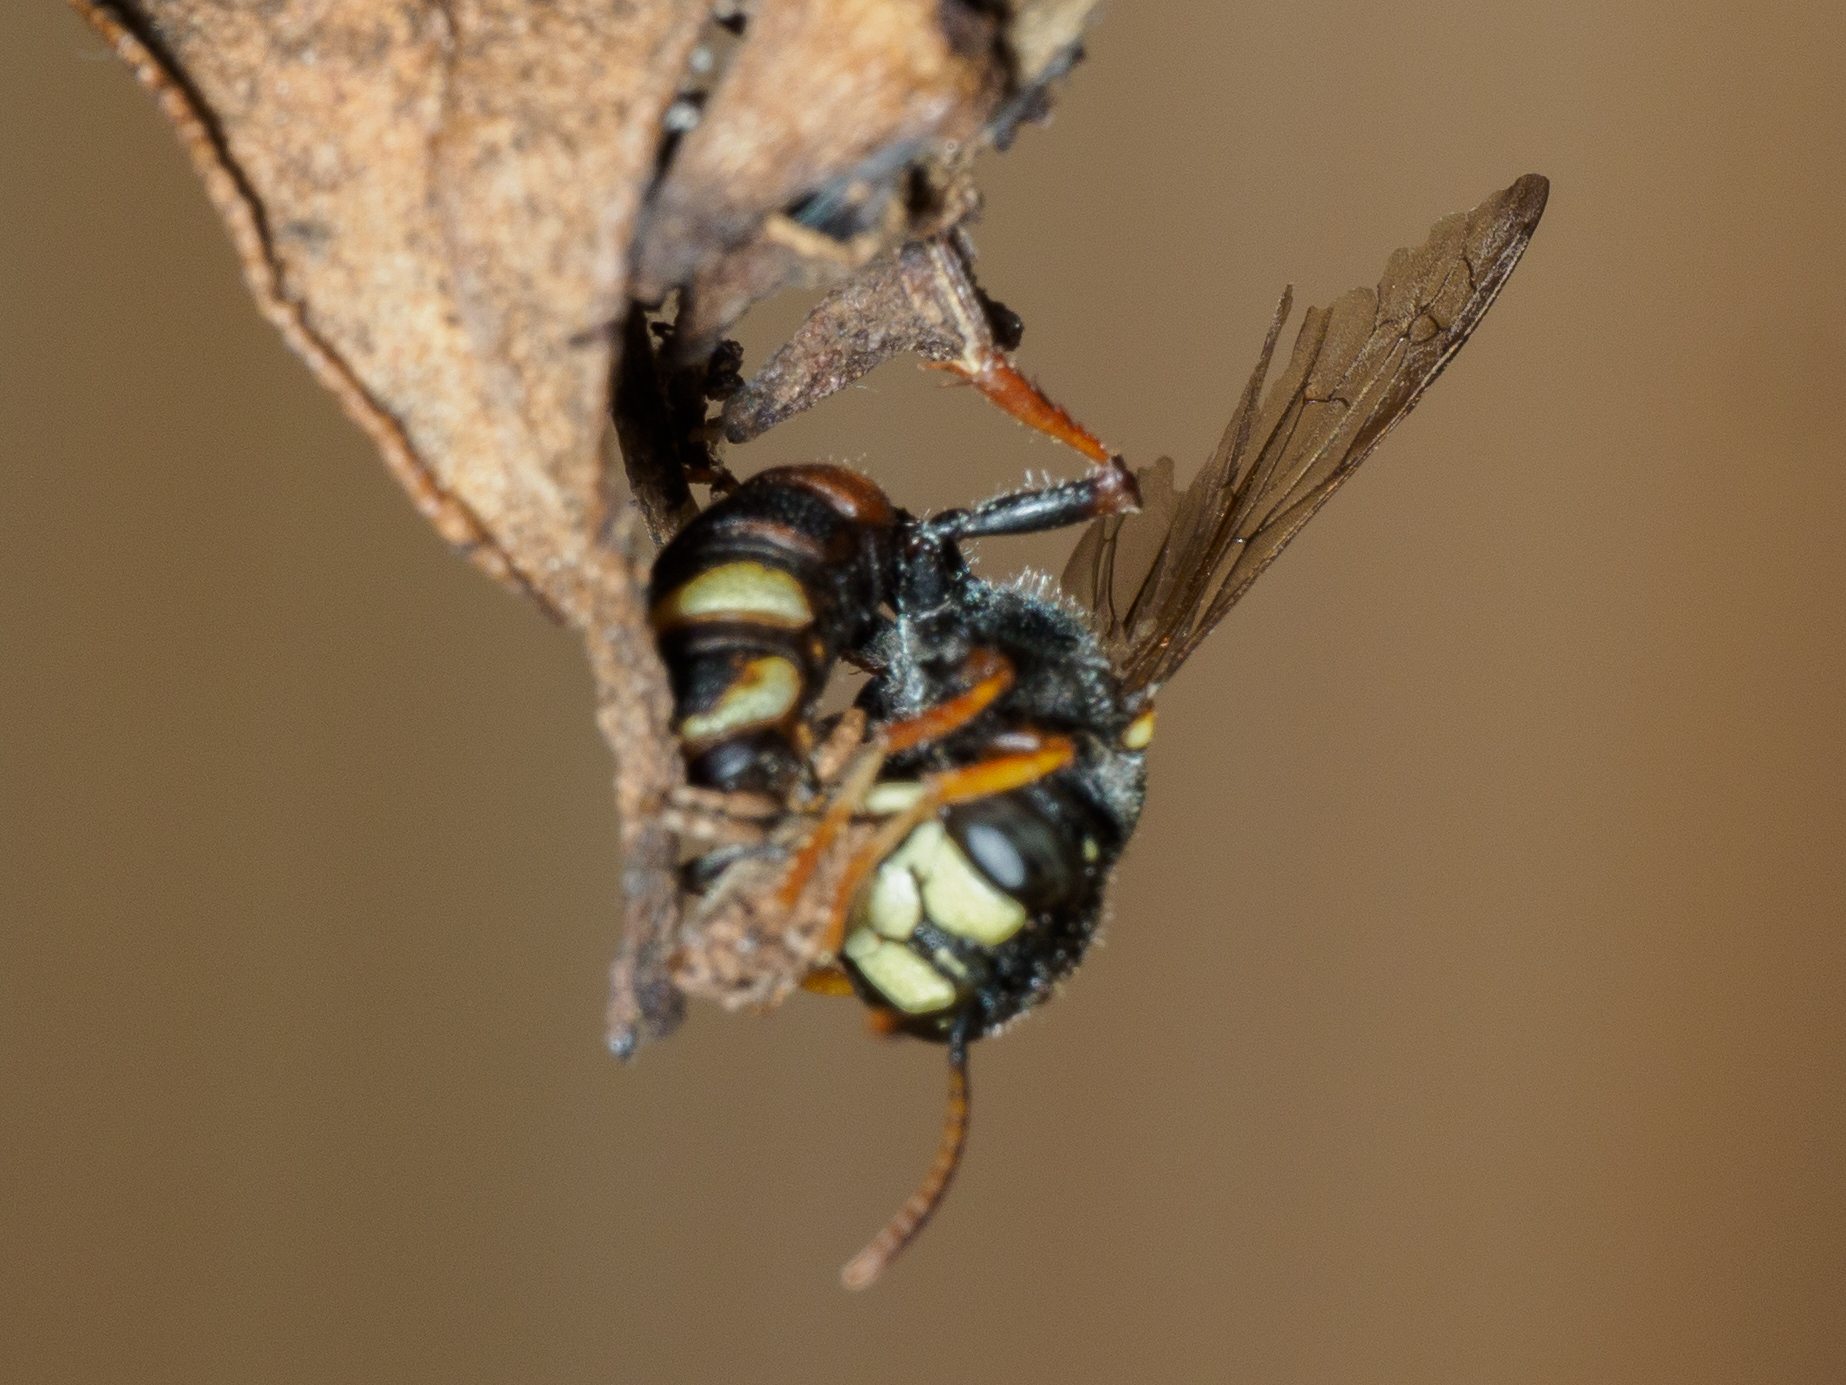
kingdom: Animalia
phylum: Arthropoda
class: Insecta
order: Hymenoptera
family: Crabronidae
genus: Cerceris
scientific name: Cerceris antipodes
